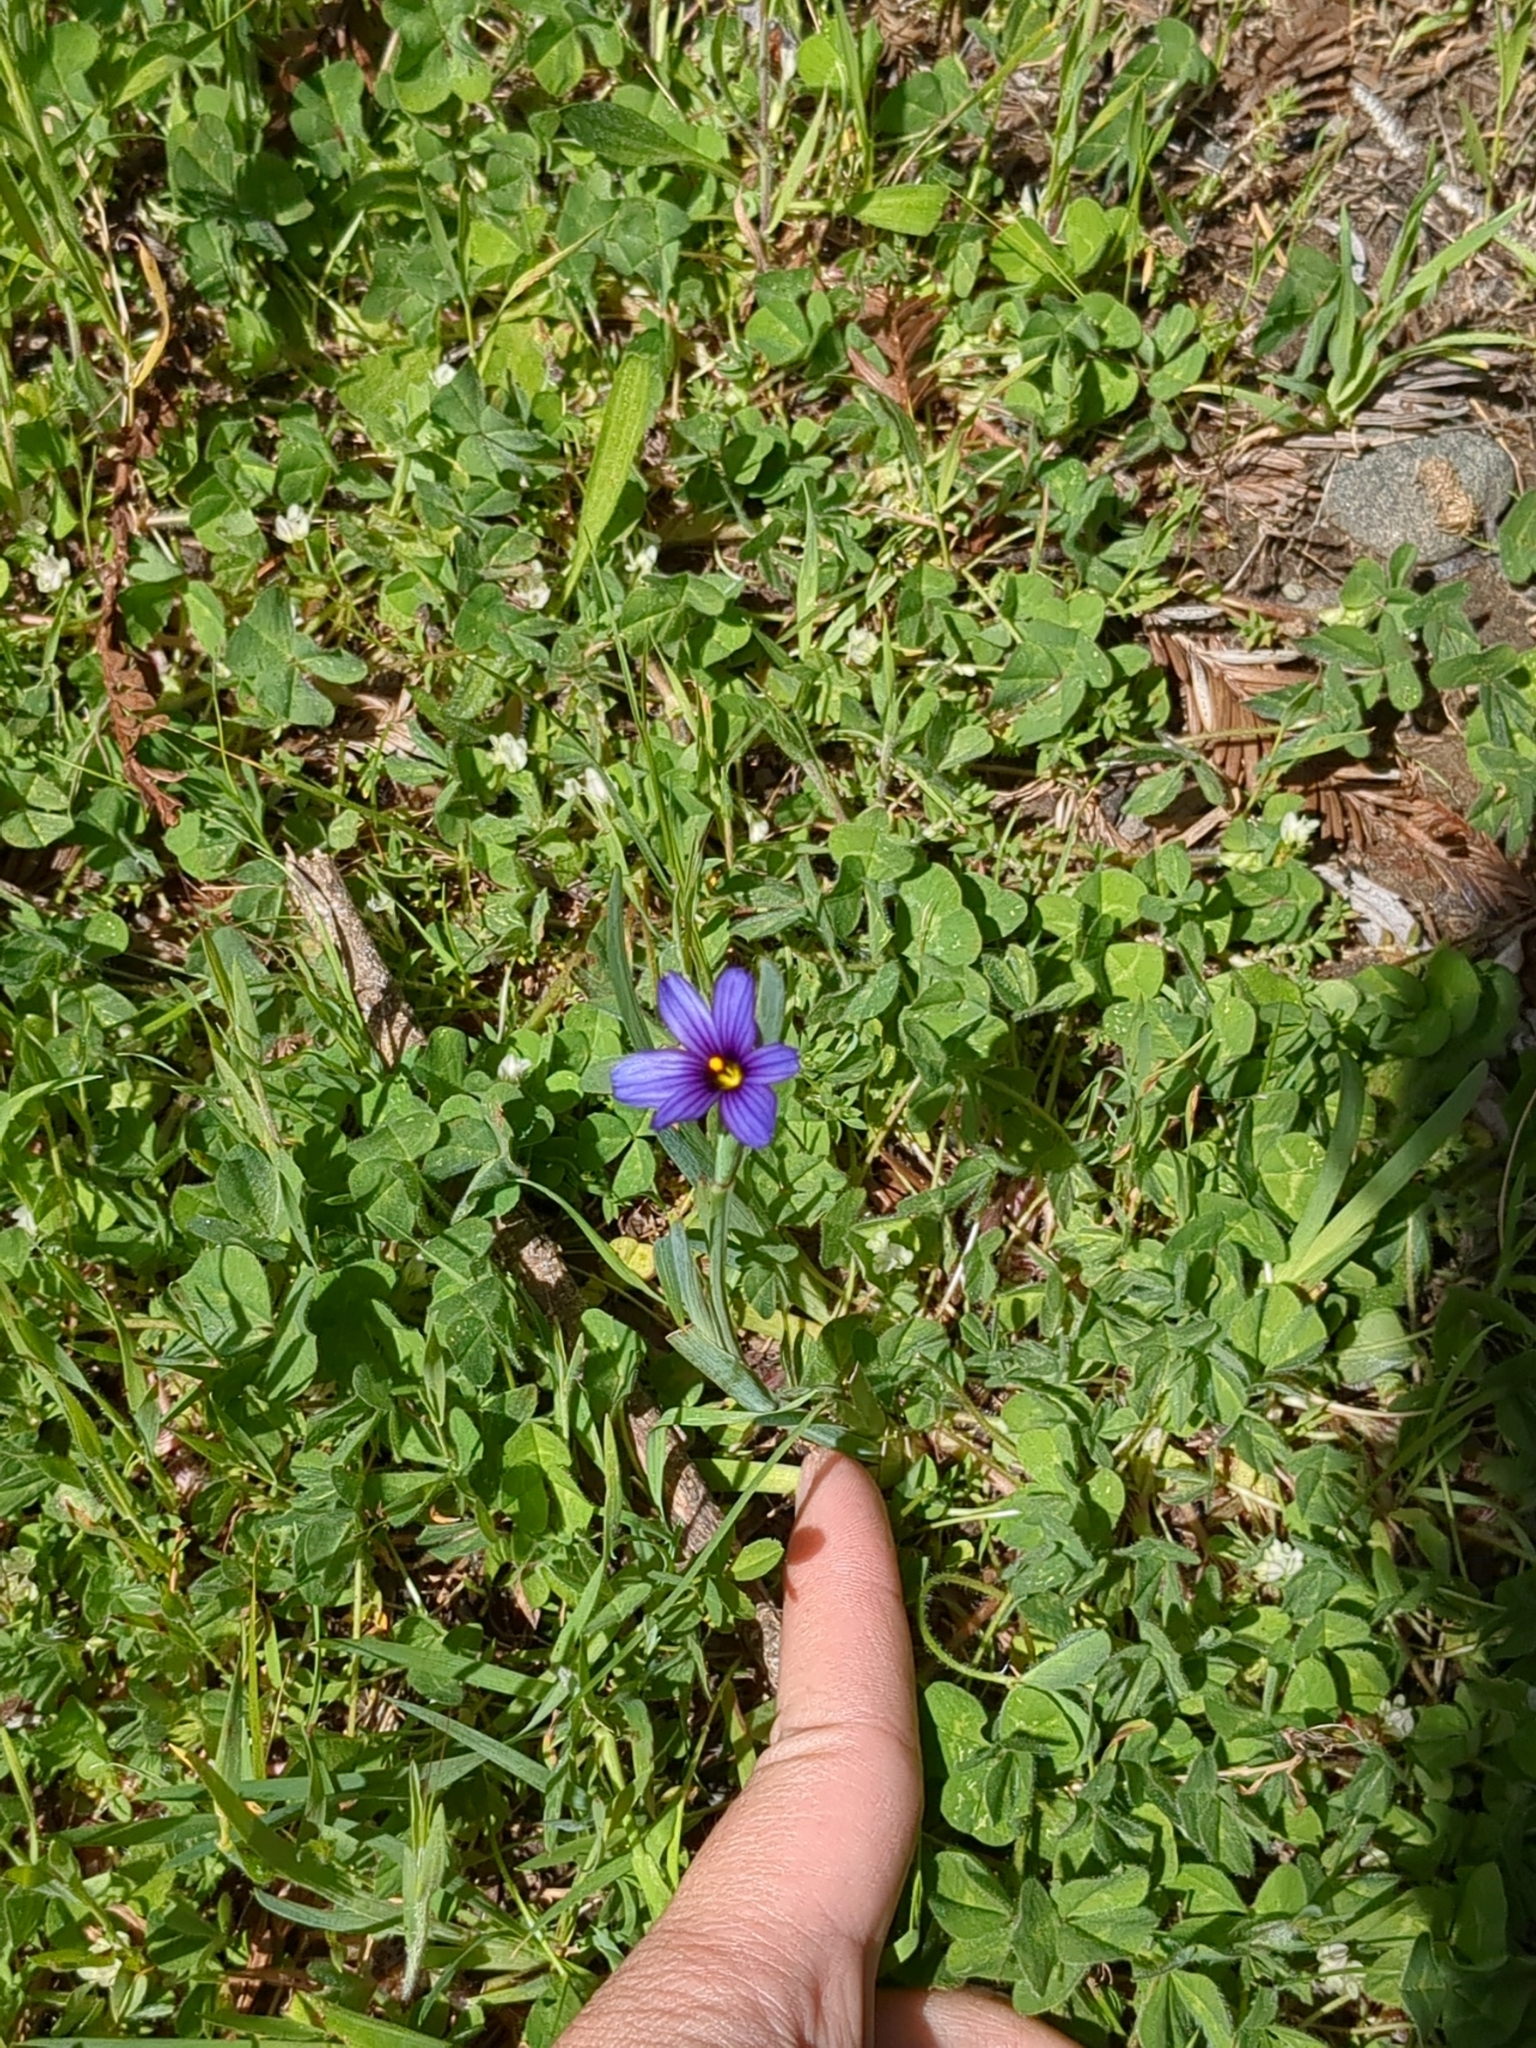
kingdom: Plantae
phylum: Tracheophyta
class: Liliopsida
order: Asparagales
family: Iridaceae
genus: Sisyrinchium
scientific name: Sisyrinchium bellum
